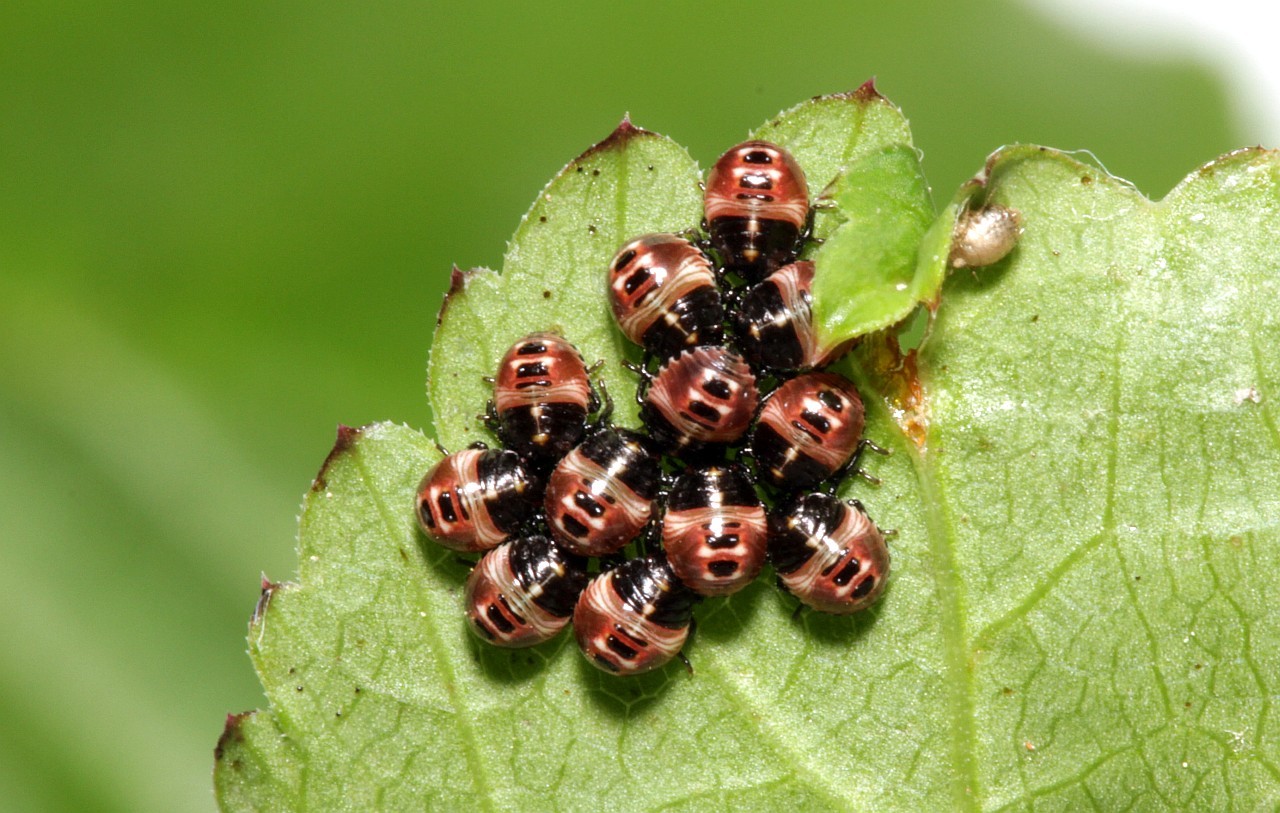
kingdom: Animalia
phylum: Arthropoda
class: Insecta
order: Hemiptera
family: Pentatomidae
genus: Palomena
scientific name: Palomena prasina
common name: Green shieldbug
